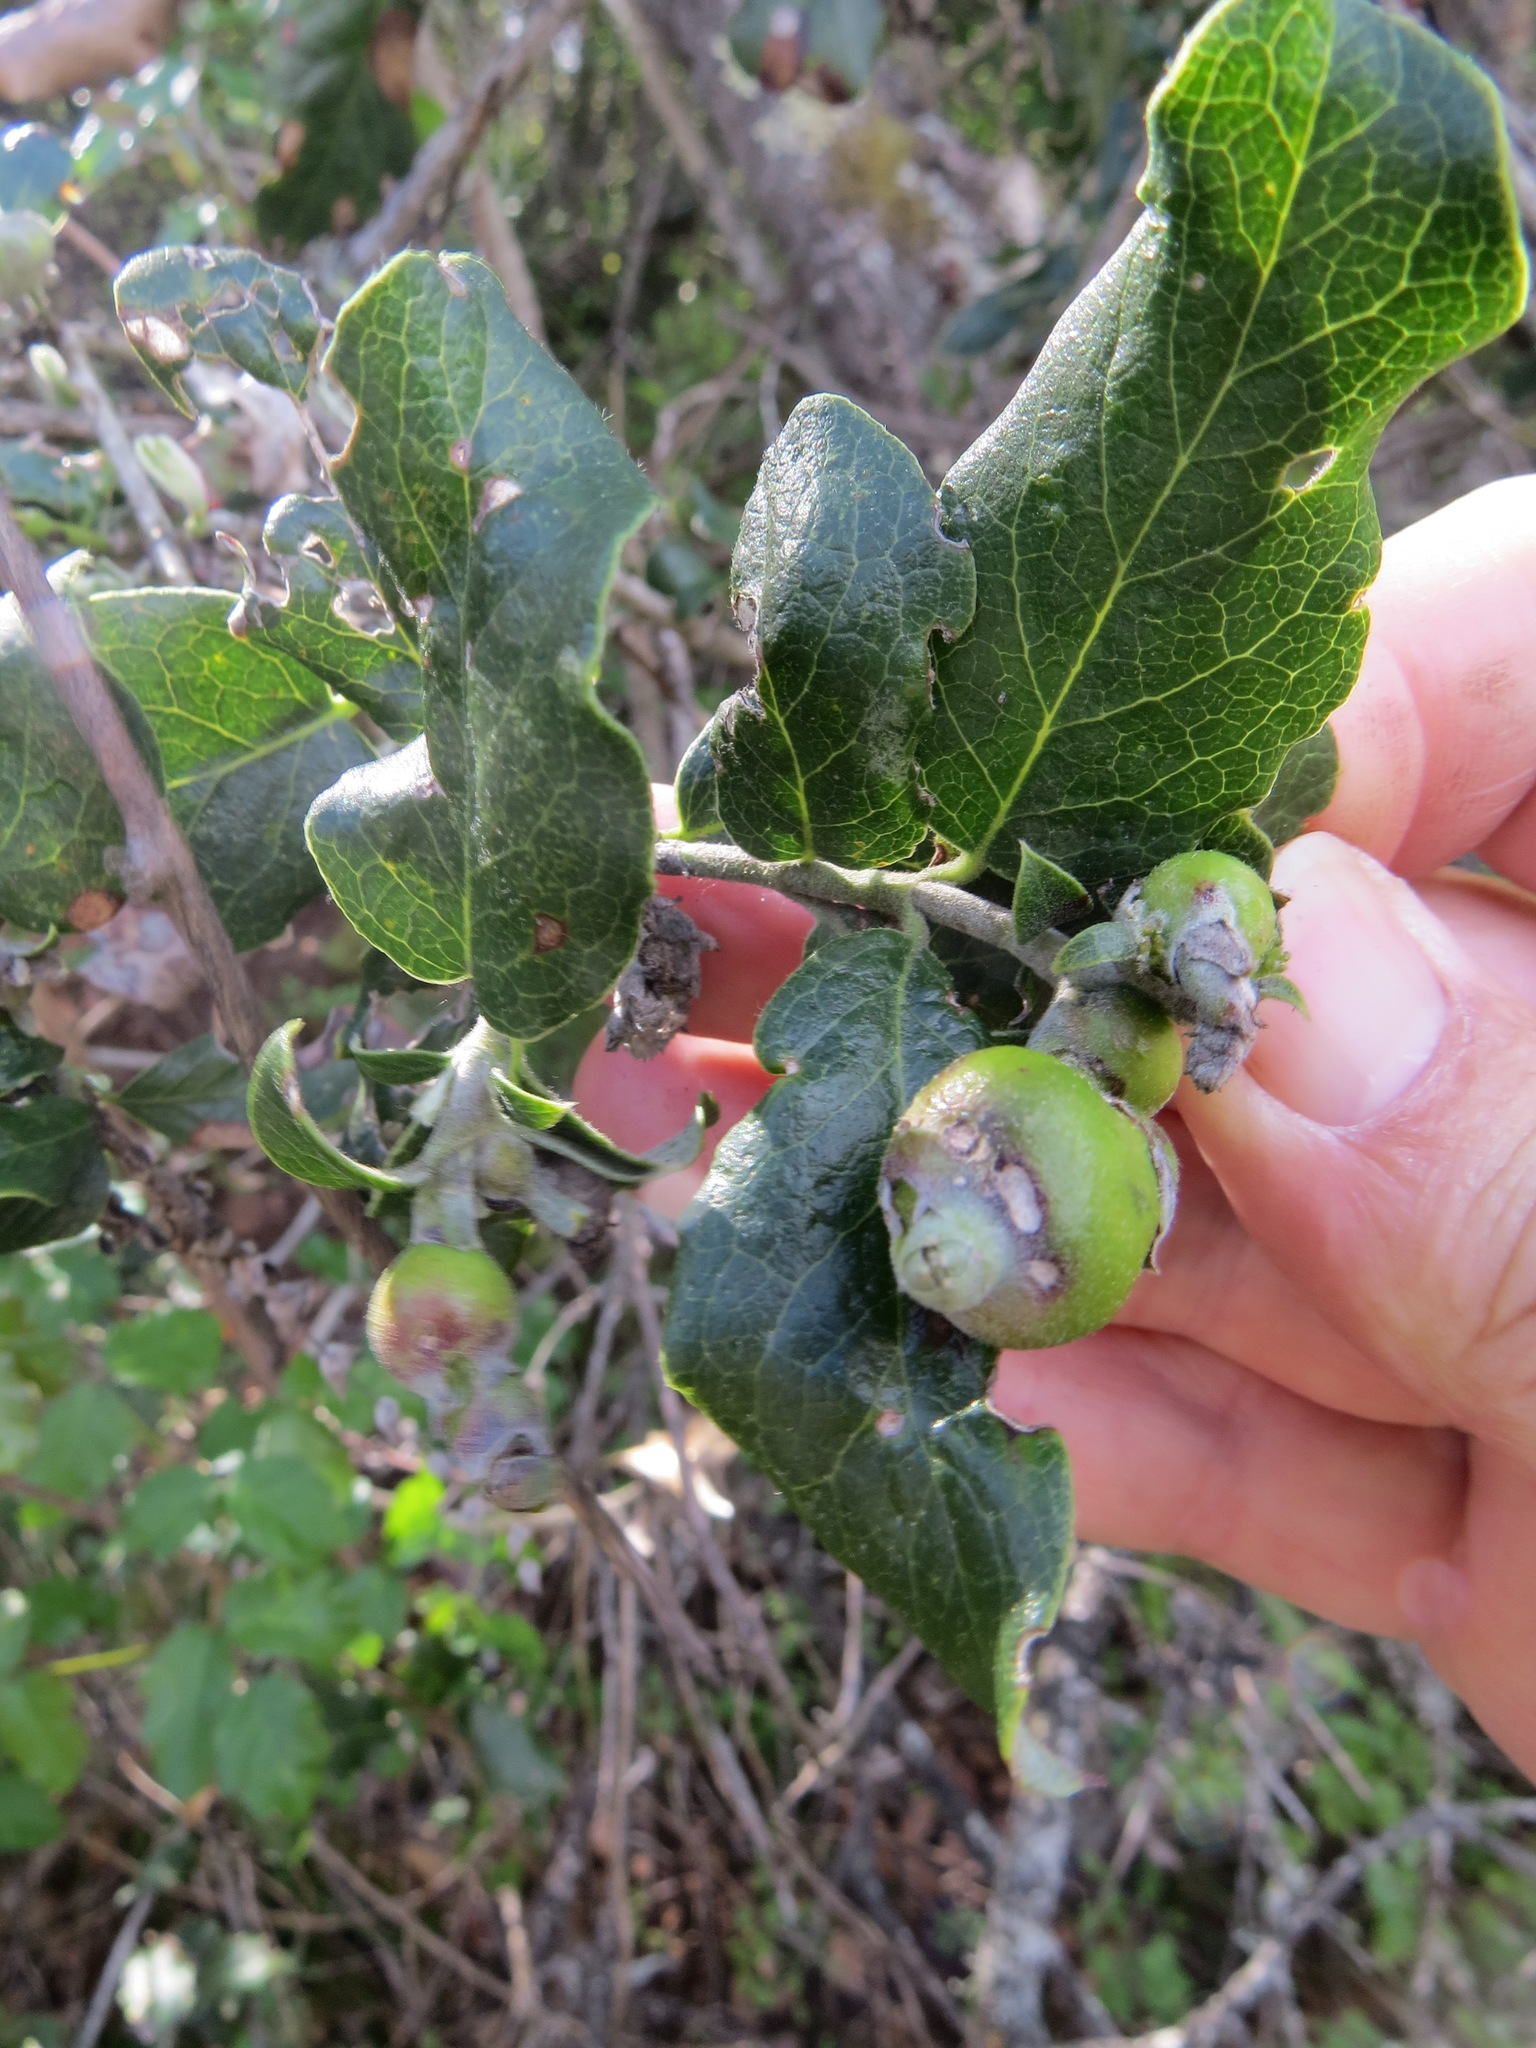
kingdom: Animalia
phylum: Arthropoda
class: Insecta
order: Diptera
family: Cecidomyiidae
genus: Asphondylia
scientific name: Asphondylia garryae
